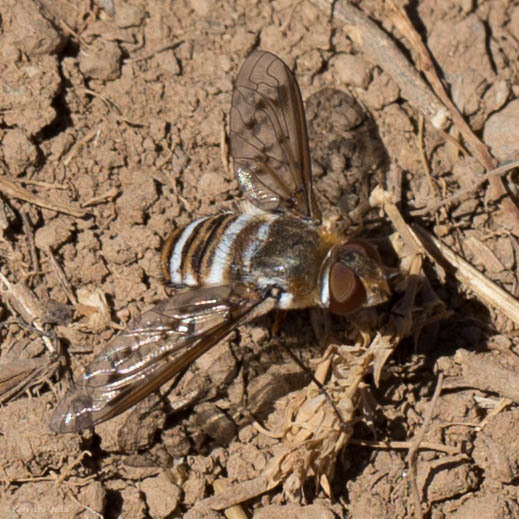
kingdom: Animalia
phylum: Arthropoda
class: Insecta
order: Diptera
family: Bombyliidae
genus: Exoprosopa
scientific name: Exoprosopa painterorum
